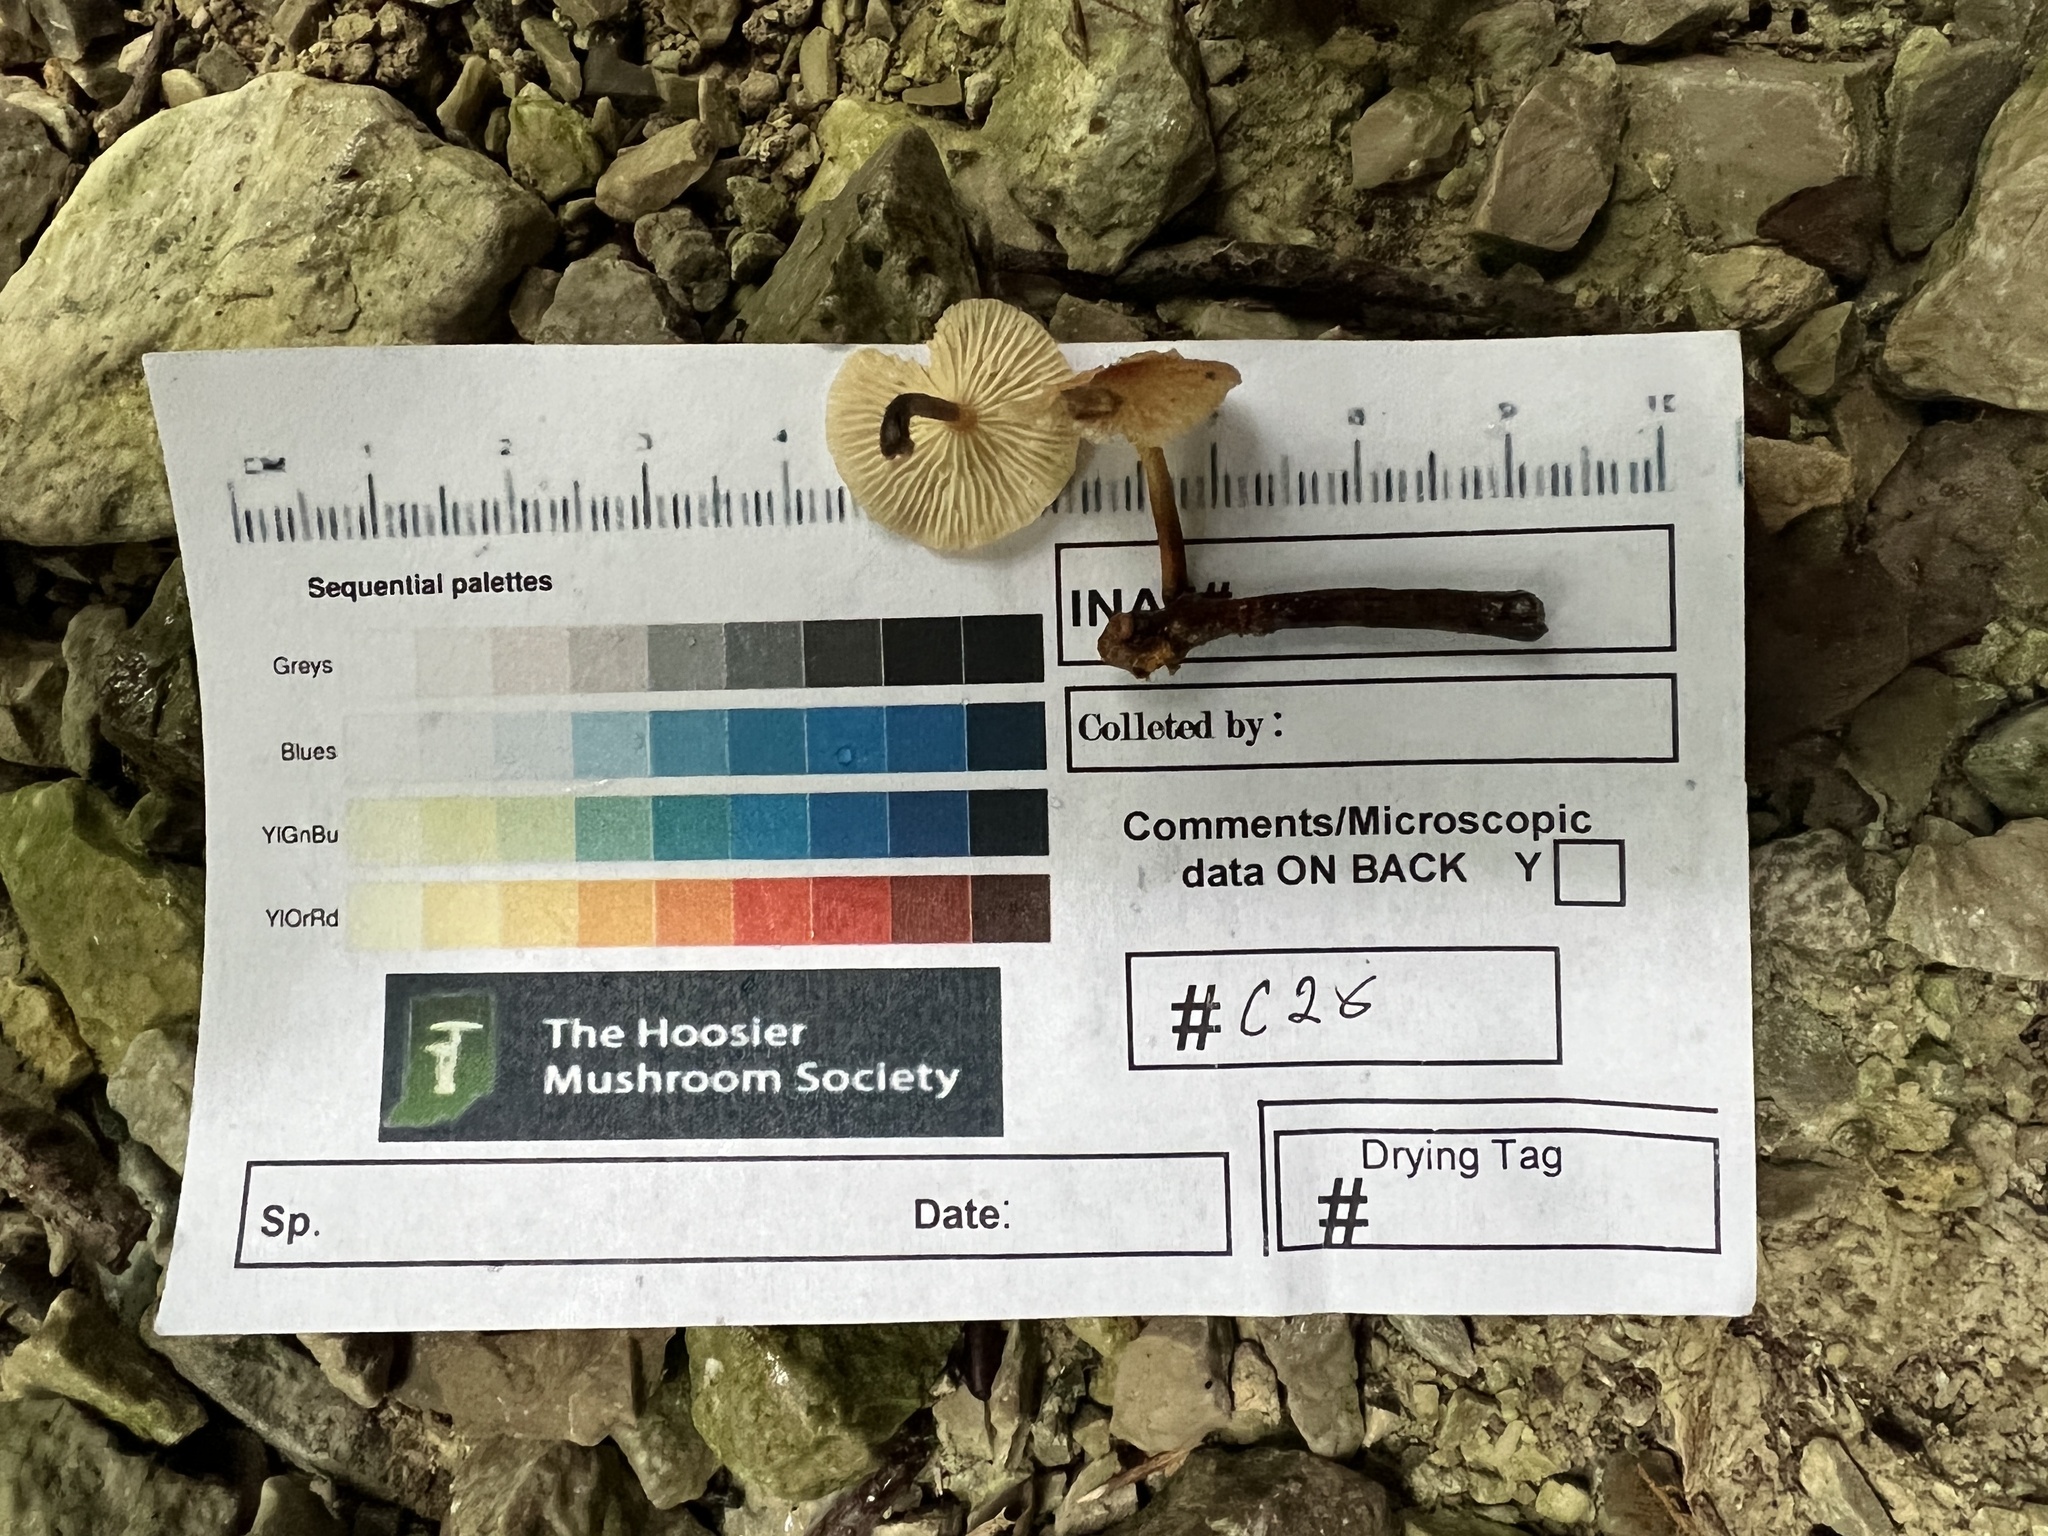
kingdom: Fungi
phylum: Basidiomycota
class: Agaricomycetes
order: Agaricales
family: Omphalotaceae
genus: Collybiopsis
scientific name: Collybiopsis subnuda
